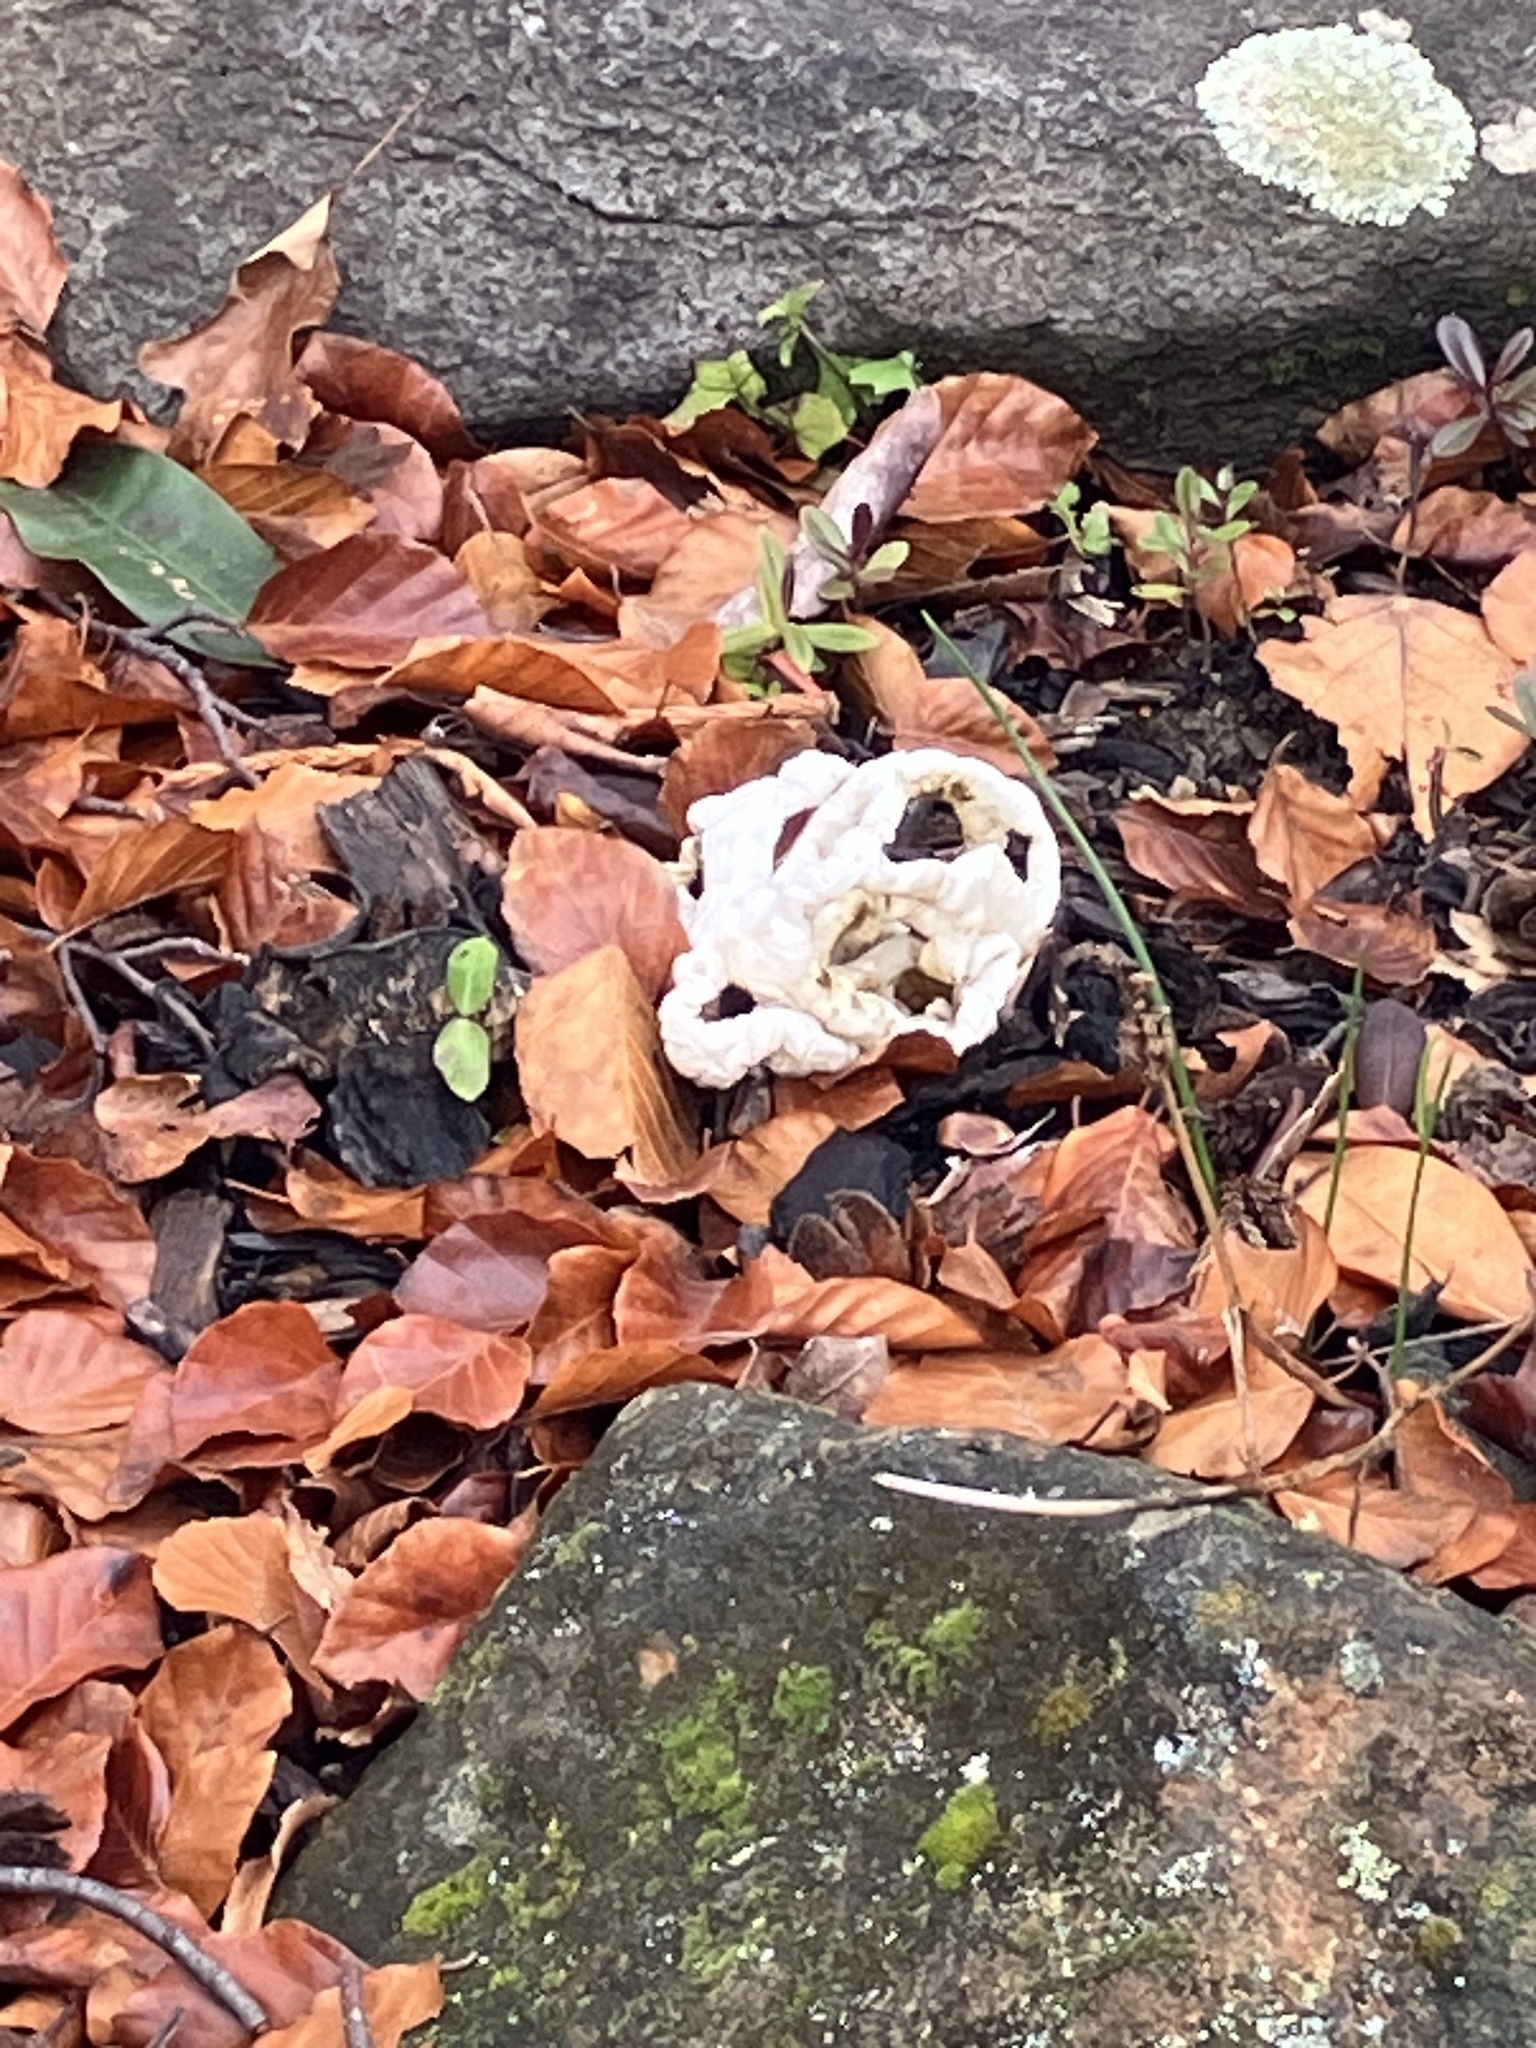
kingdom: Fungi
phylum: Basidiomycota
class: Agaricomycetes
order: Phallales
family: Phallaceae
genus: Ileodictyon
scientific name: Ileodictyon cibarium
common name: Basket fungus
